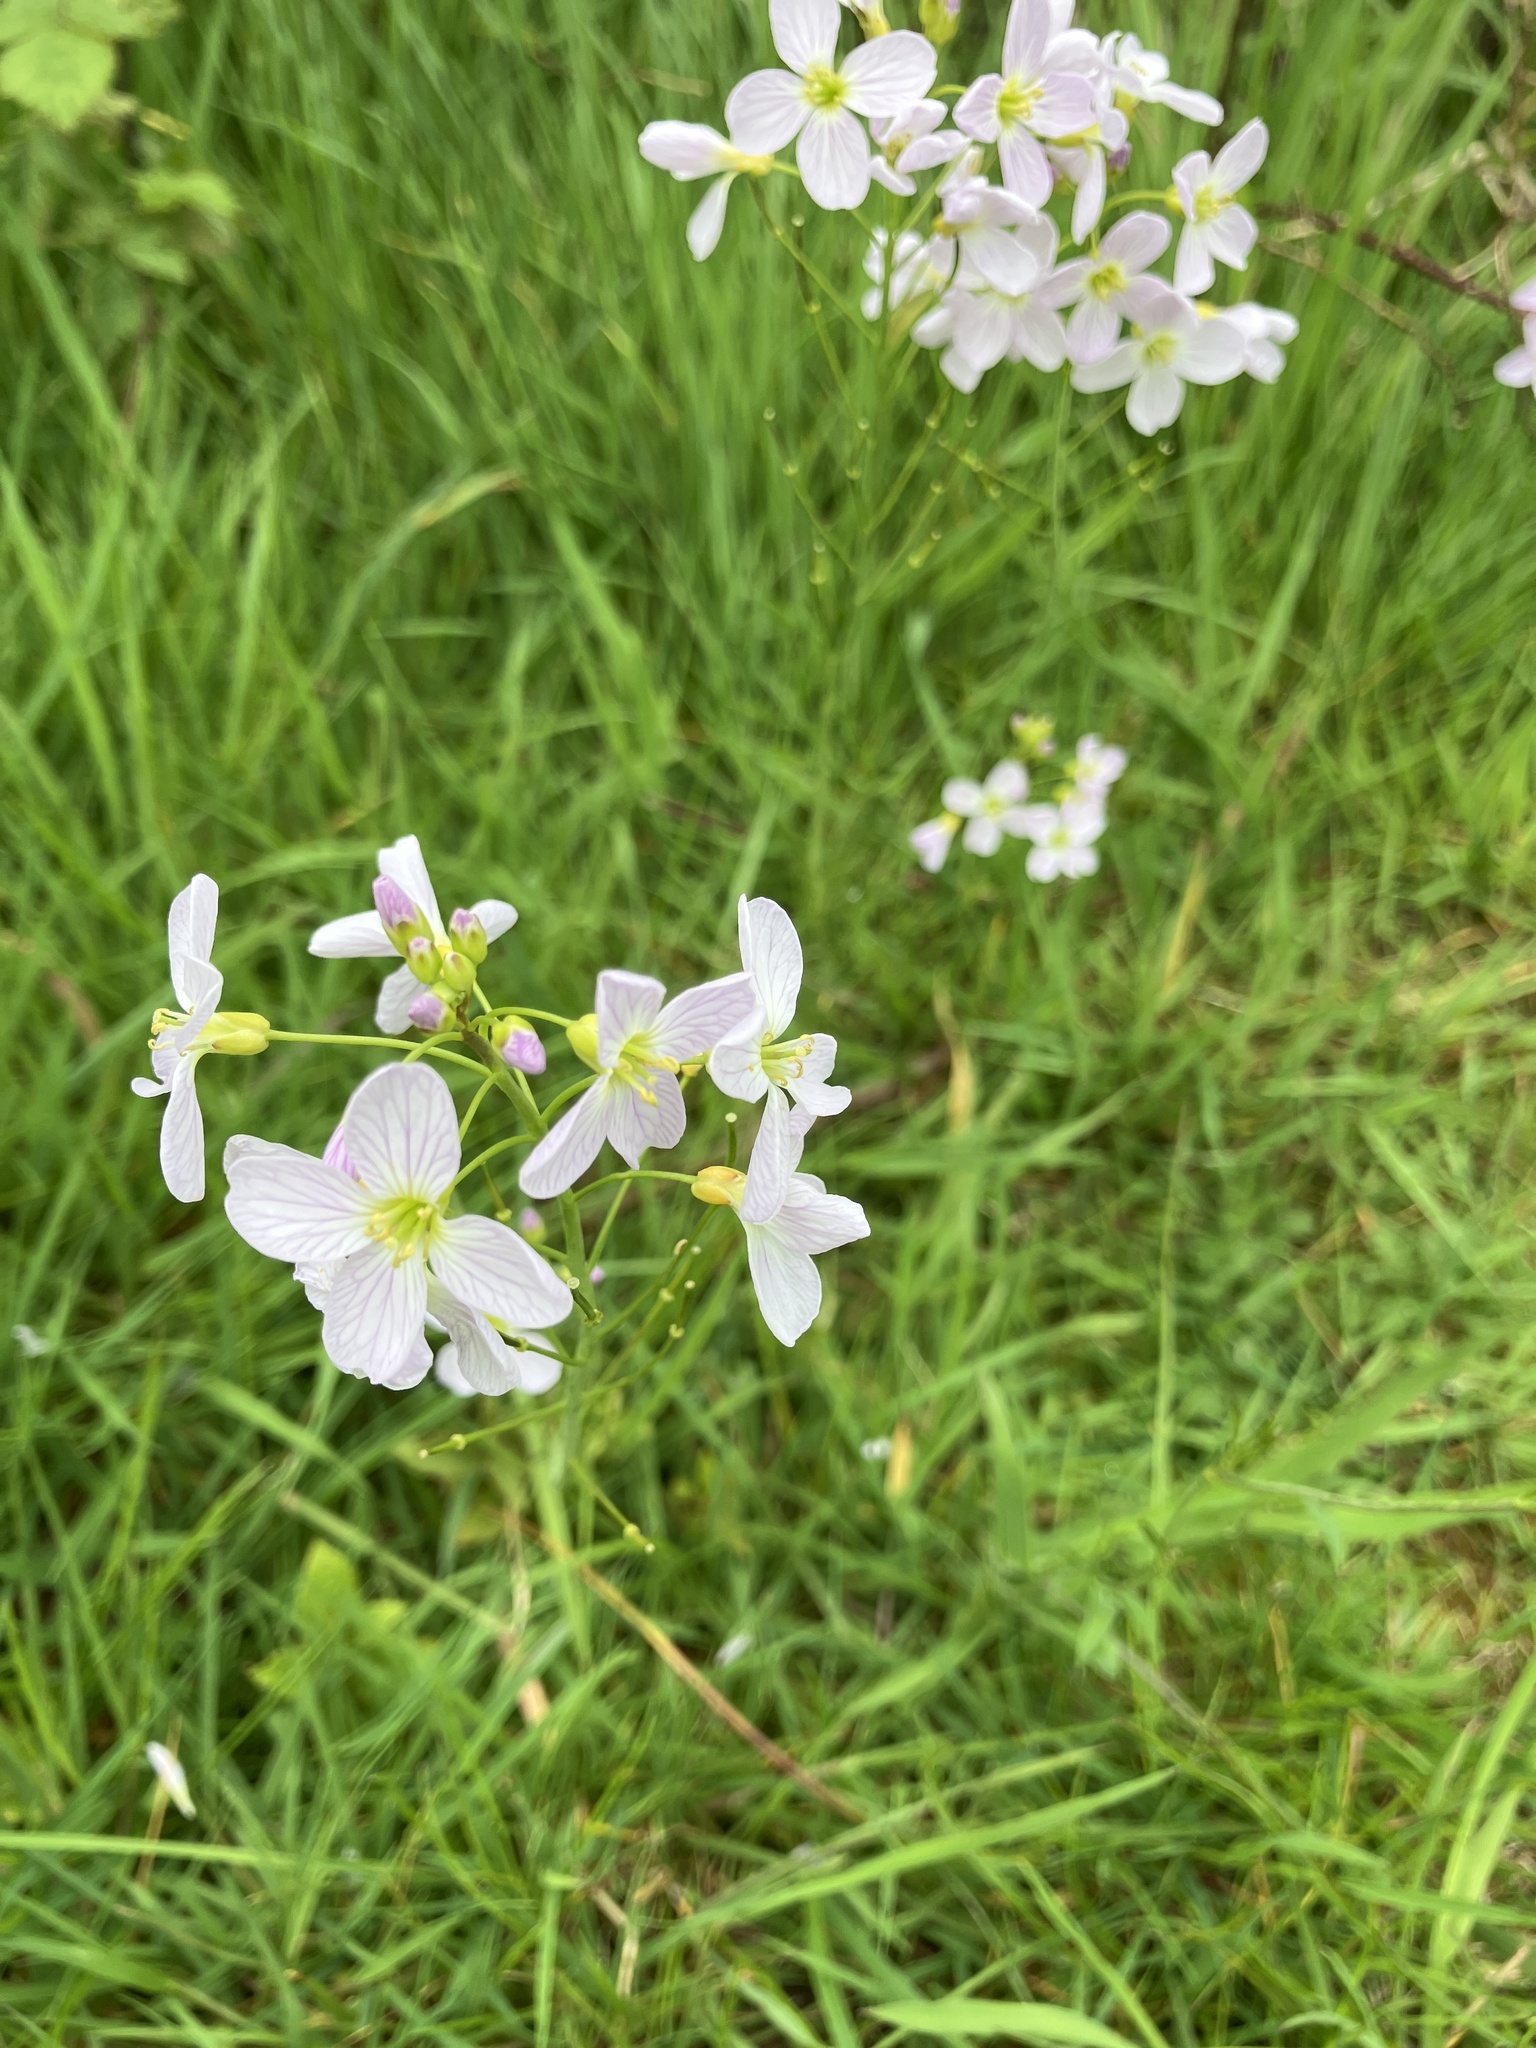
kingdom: Plantae
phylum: Tracheophyta
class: Magnoliopsida
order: Brassicales
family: Brassicaceae
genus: Cardamine
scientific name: Cardamine pratensis
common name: Cuckoo flower
